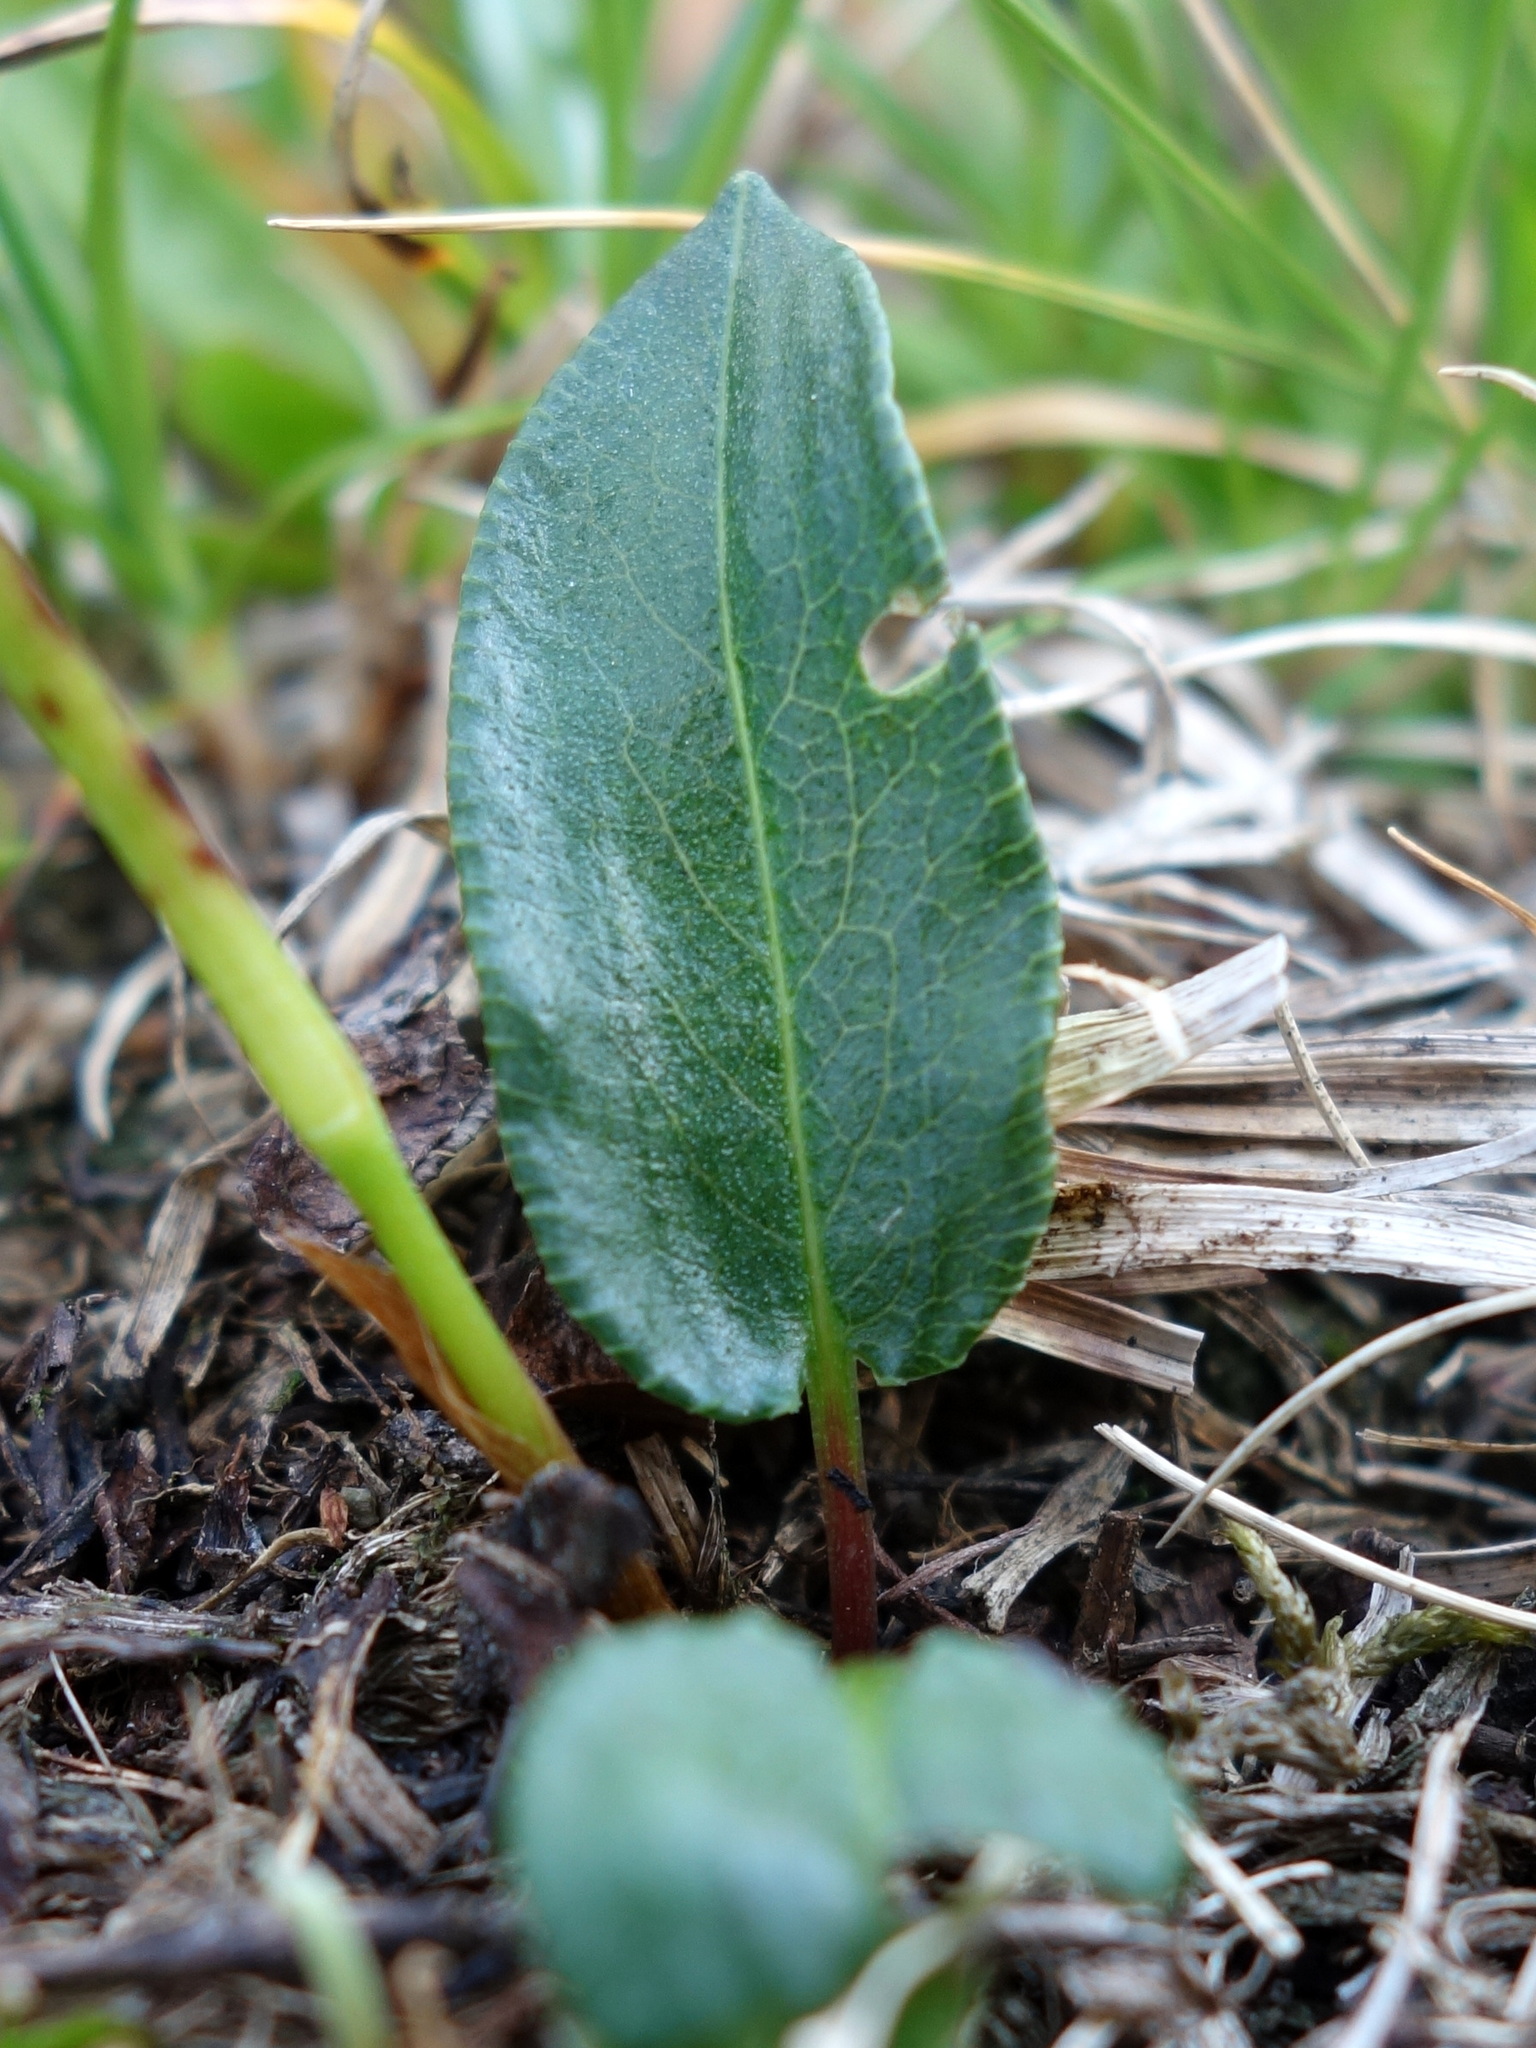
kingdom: Plantae
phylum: Tracheophyta
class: Magnoliopsida
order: Caryophyllales
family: Polygonaceae
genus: Bistorta
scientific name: Bistorta vivipara
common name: Alpine bistort
